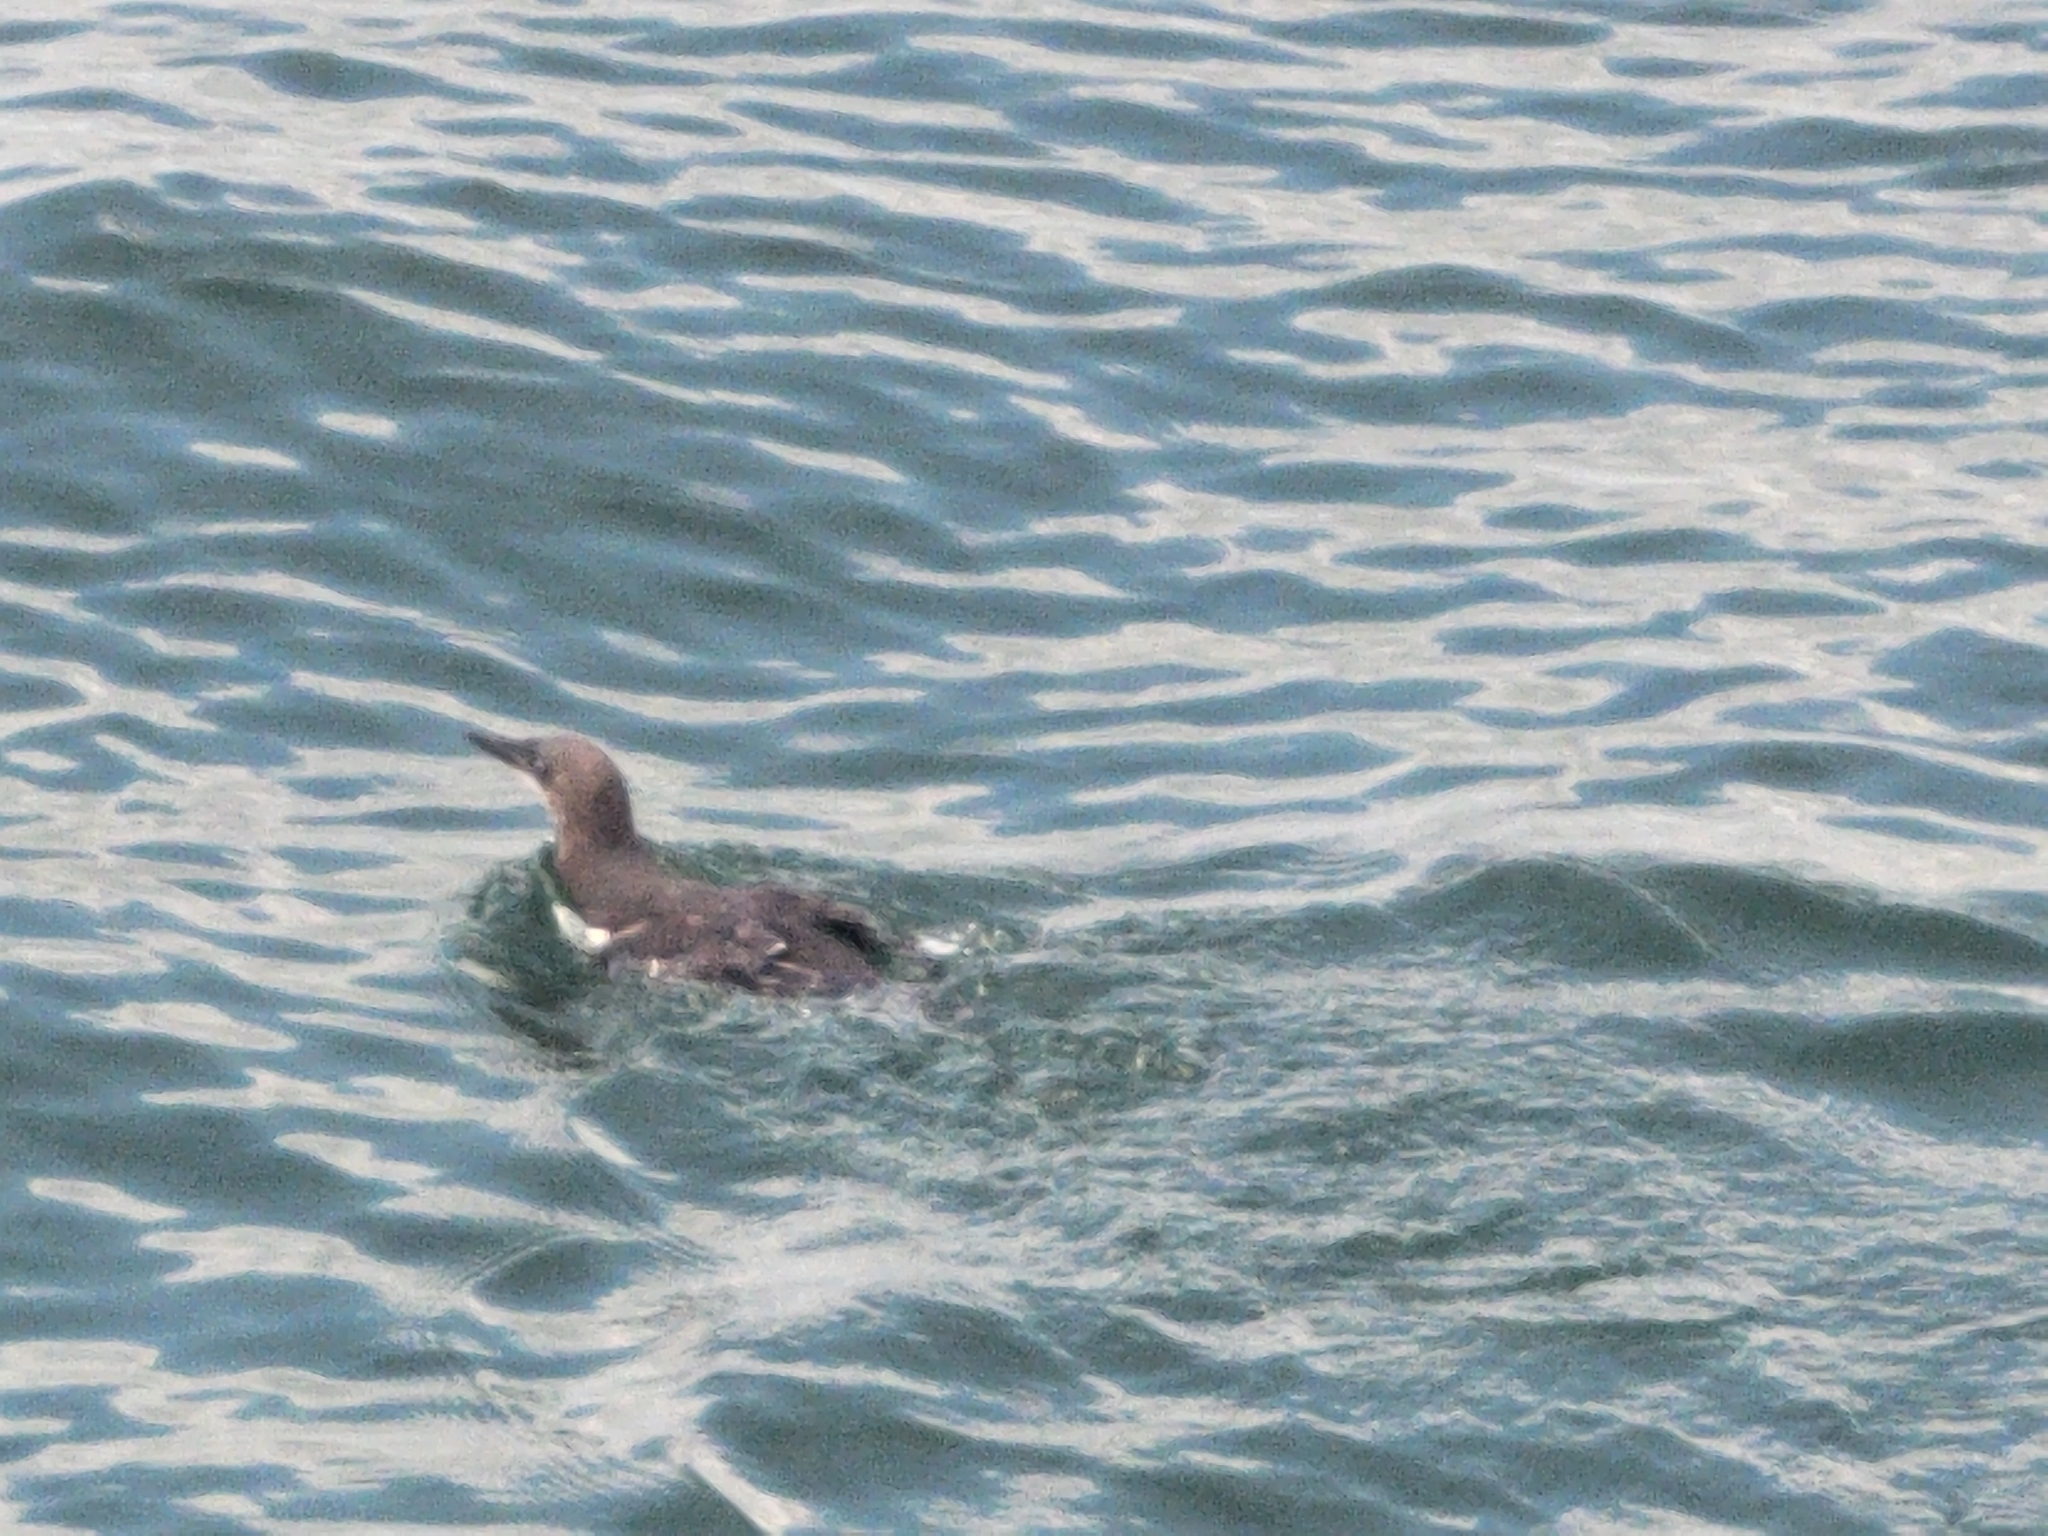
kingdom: Animalia
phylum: Chordata
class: Aves
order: Charadriiformes
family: Alcidae
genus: Uria
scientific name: Uria aalge
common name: Common murre
